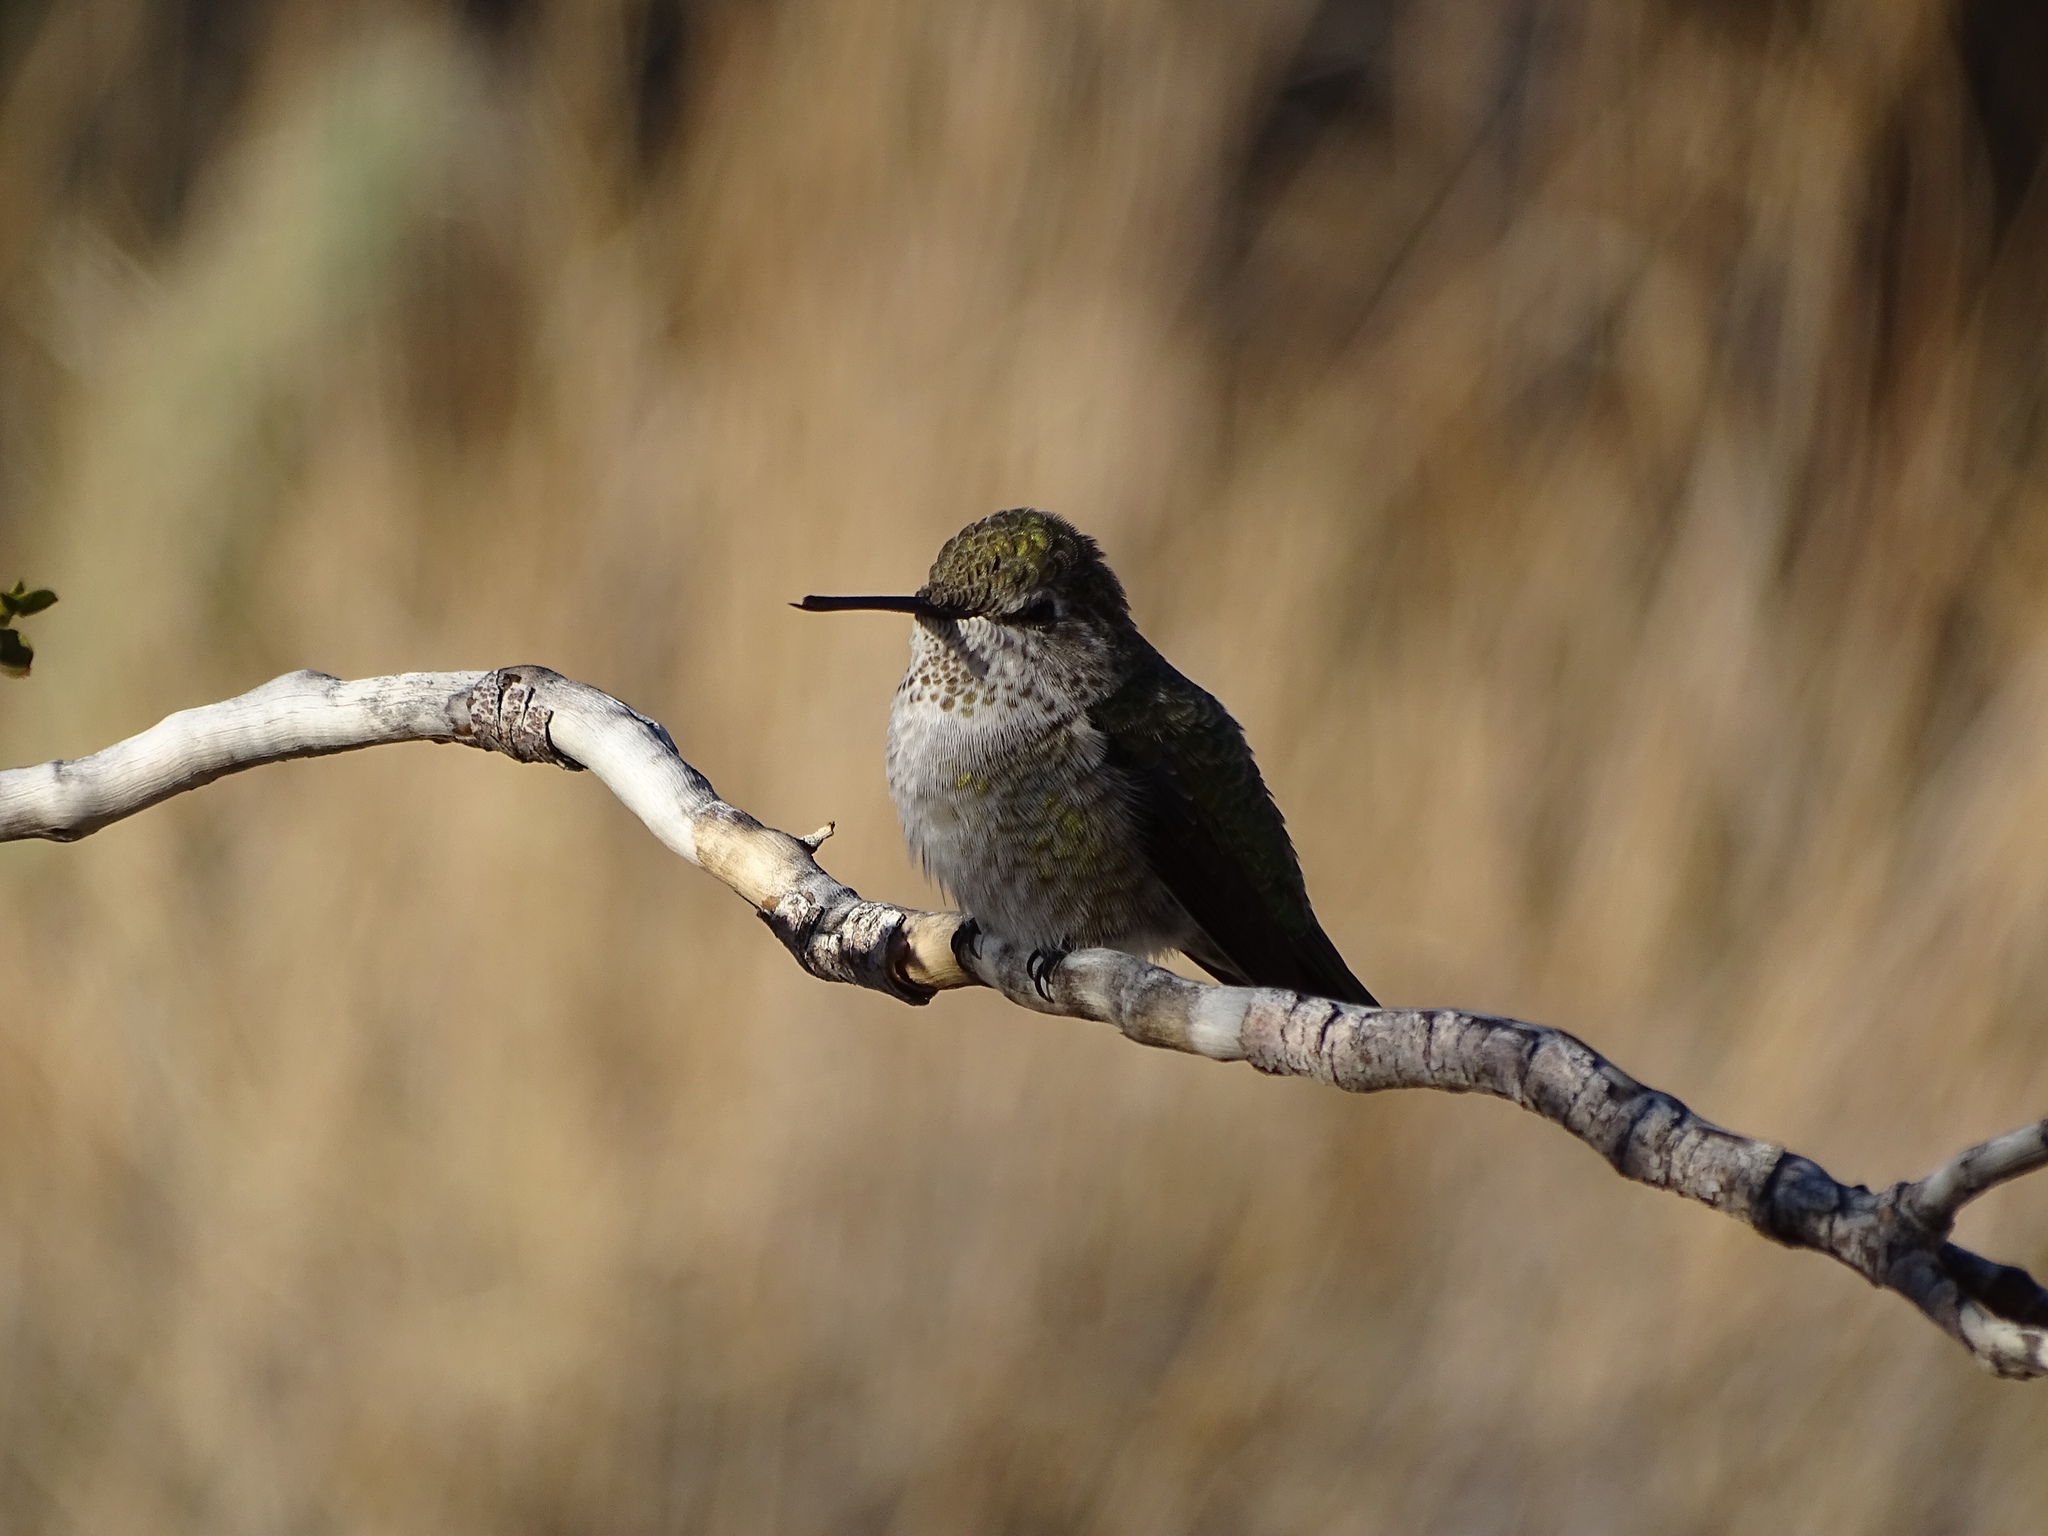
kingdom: Animalia
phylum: Chordata
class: Aves
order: Apodiformes
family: Trochilidae
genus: Calypte
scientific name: Calypte anna
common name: Anna's hummingbird
